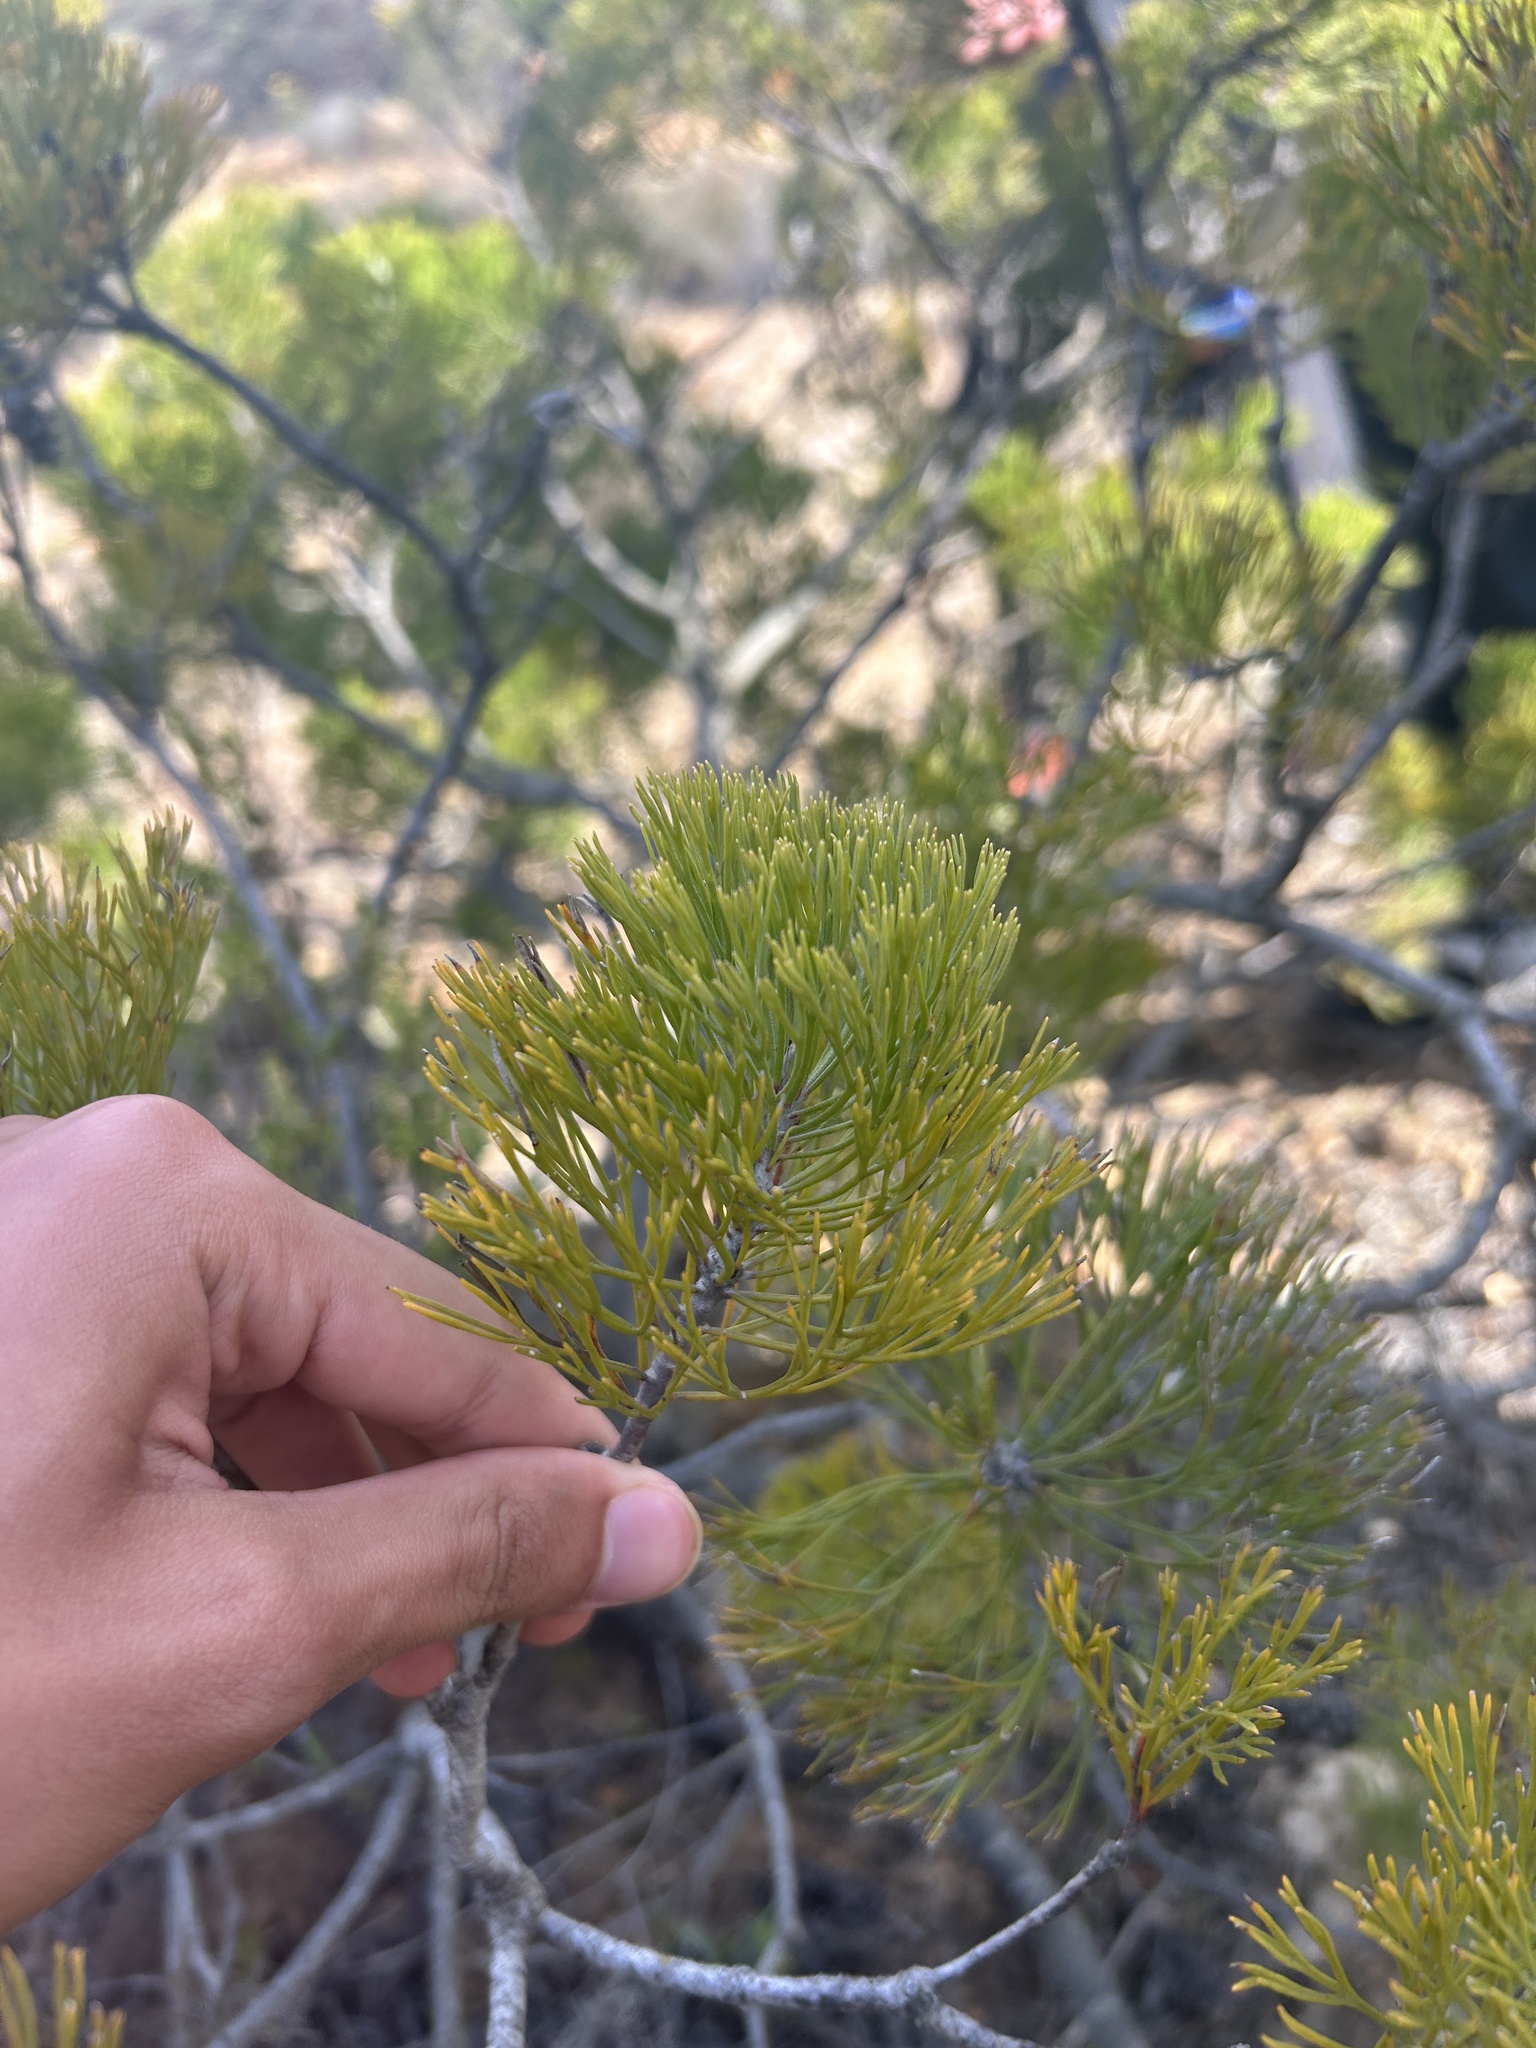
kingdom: Plantae
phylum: Tracheophyta
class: Magnoliopsida
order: Proteales
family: Proteaceae
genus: Paranomus
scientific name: Paranomus bracteolaris
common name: Bokkeveld tree sceptre
